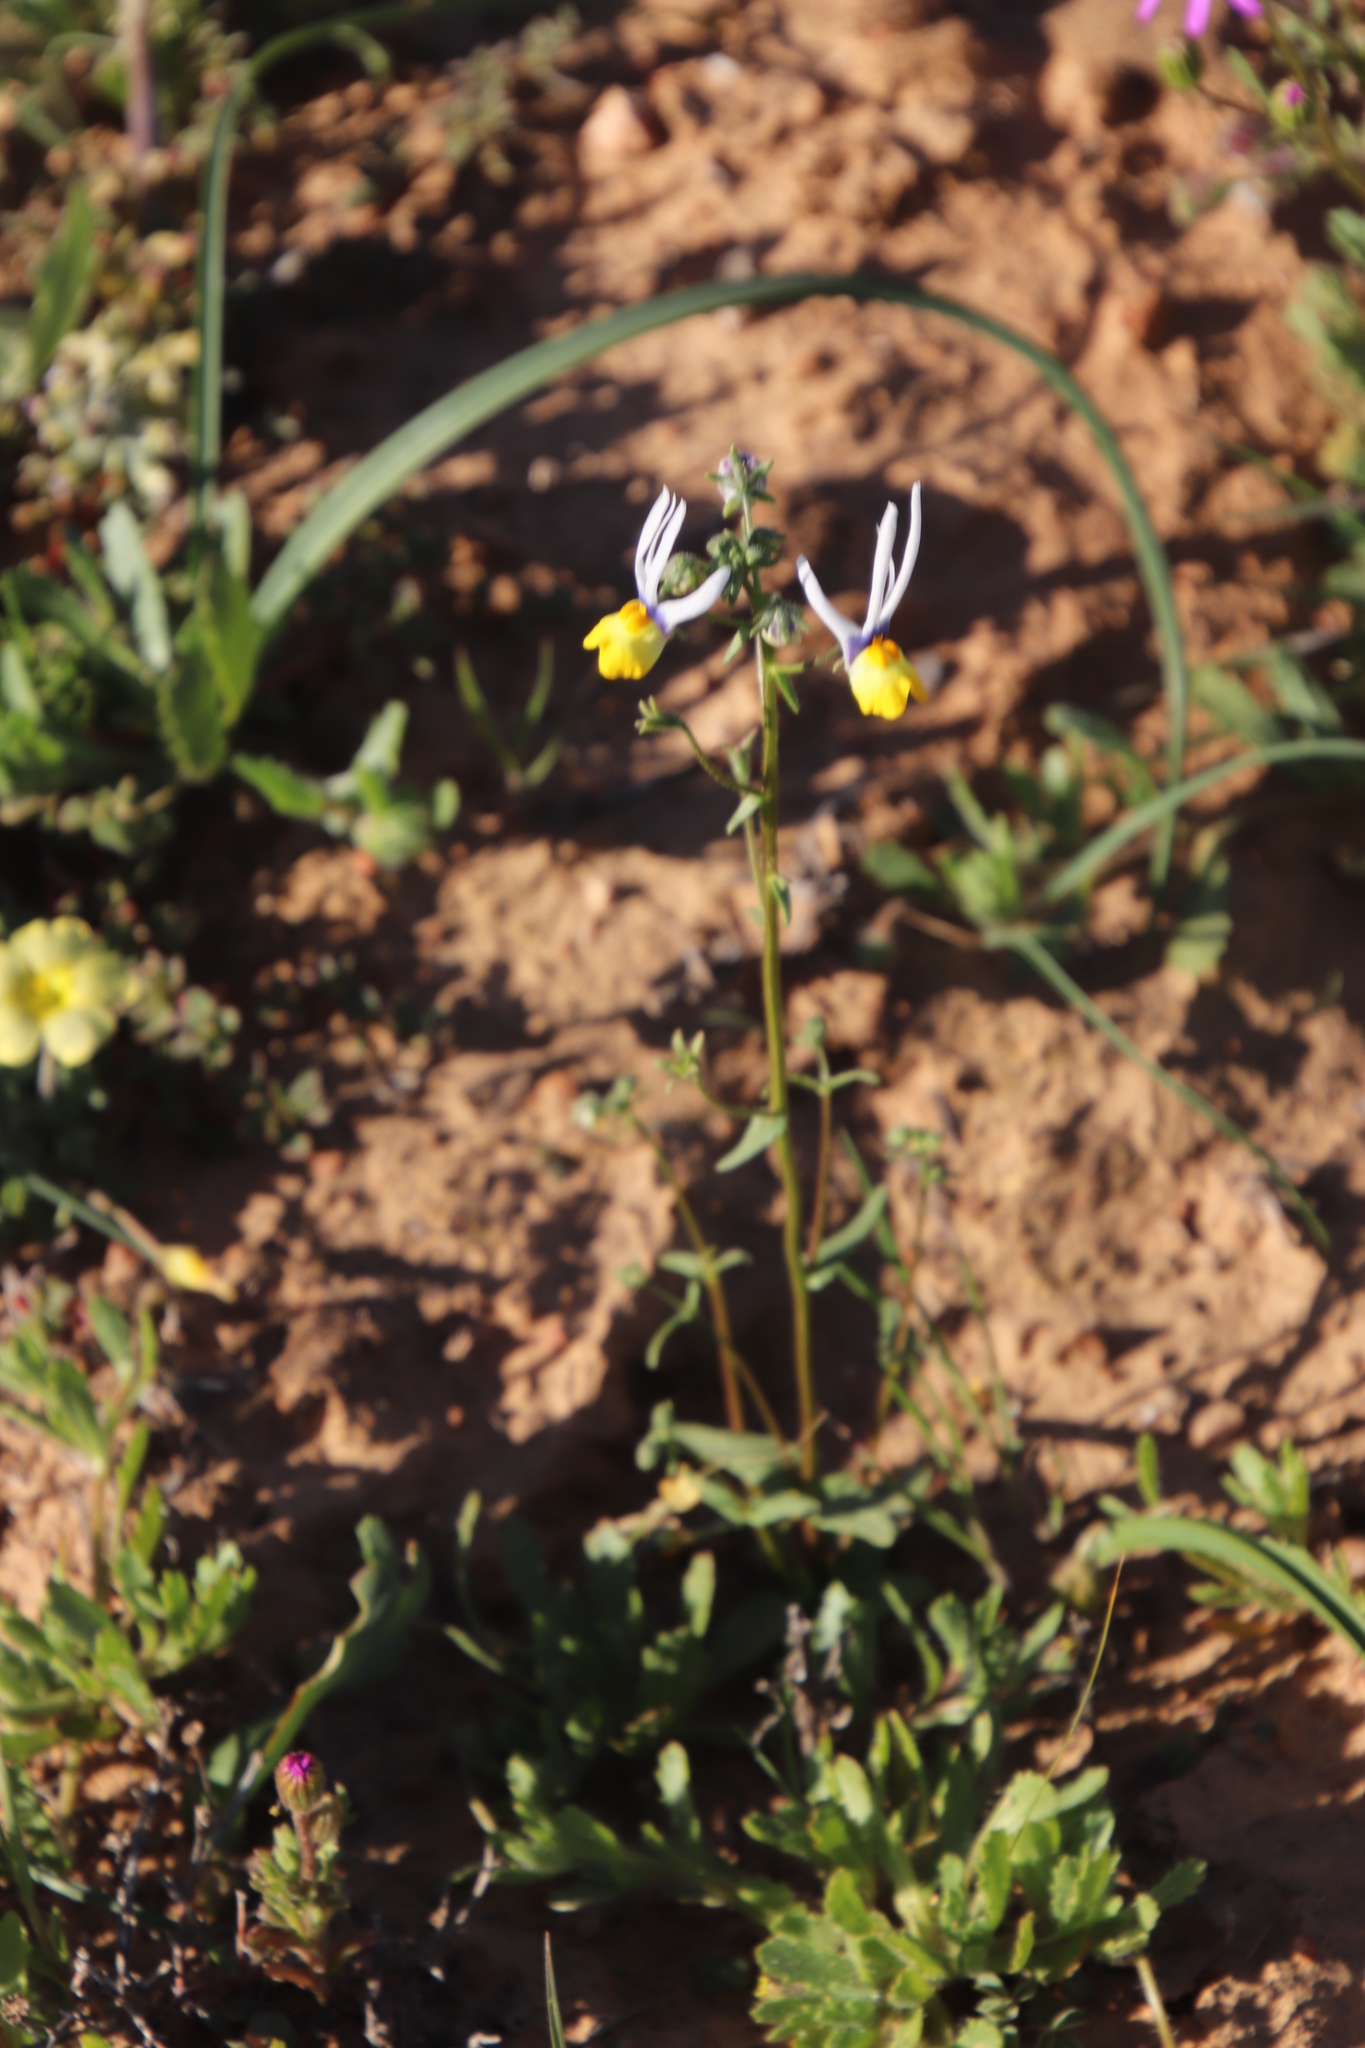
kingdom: Plantae
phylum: Tracheophyta
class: Magnoliopsida
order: Lamiales
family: Scrophulariaceae
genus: Nemesia
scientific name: Nemesia cheiranthus
